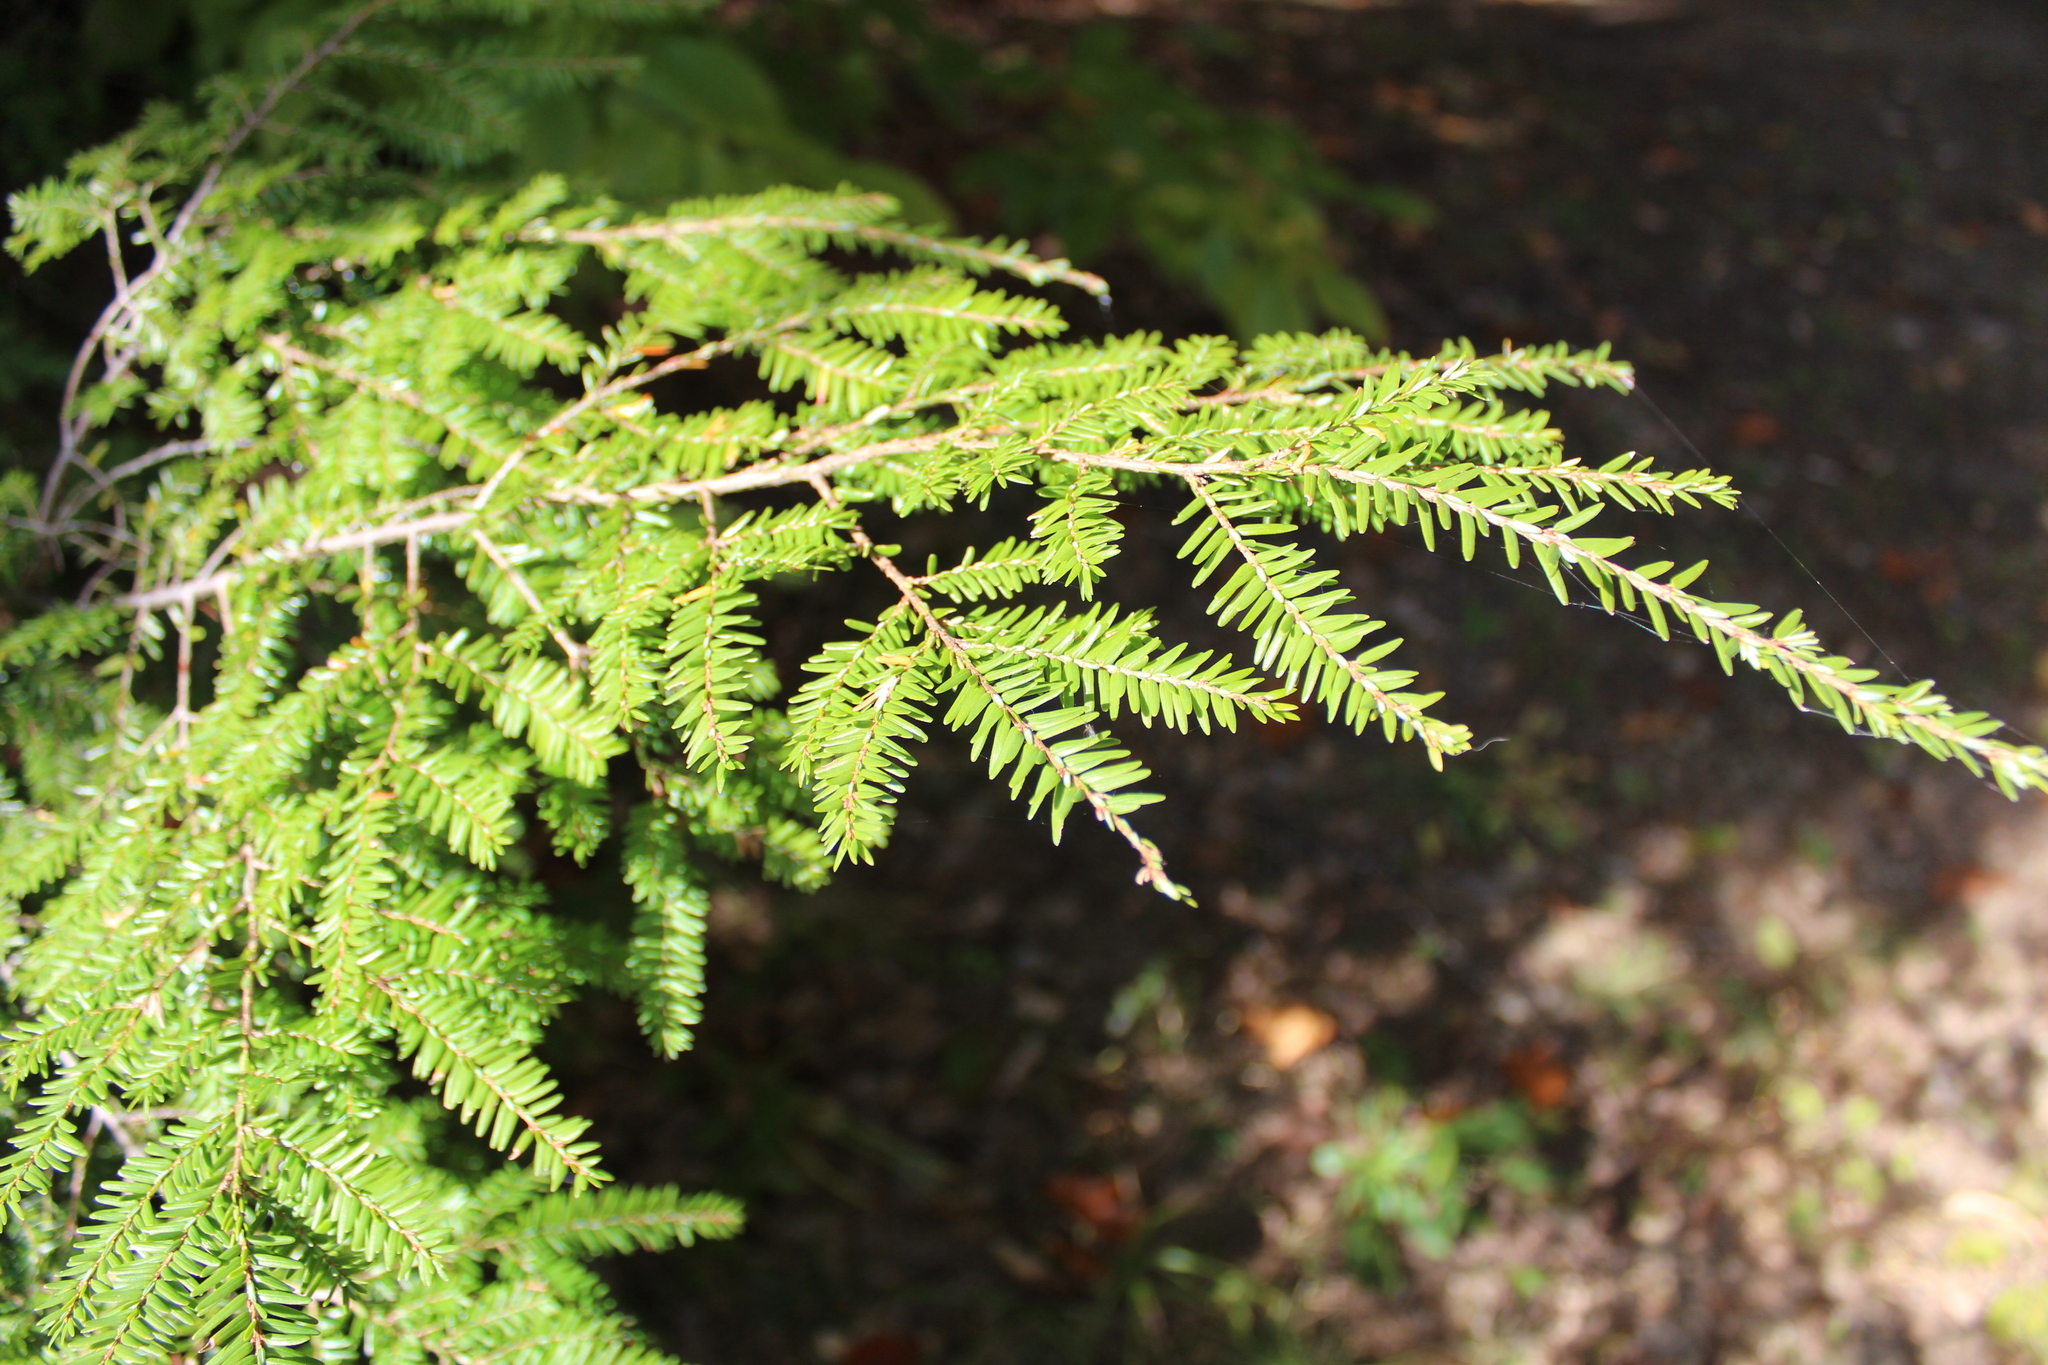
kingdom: Plantae
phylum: Tracheophyta
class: Pinopsida
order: Pinales
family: Pinaceae
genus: Tsuga
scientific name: Tsuga canadensis
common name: Eastern hemlock
